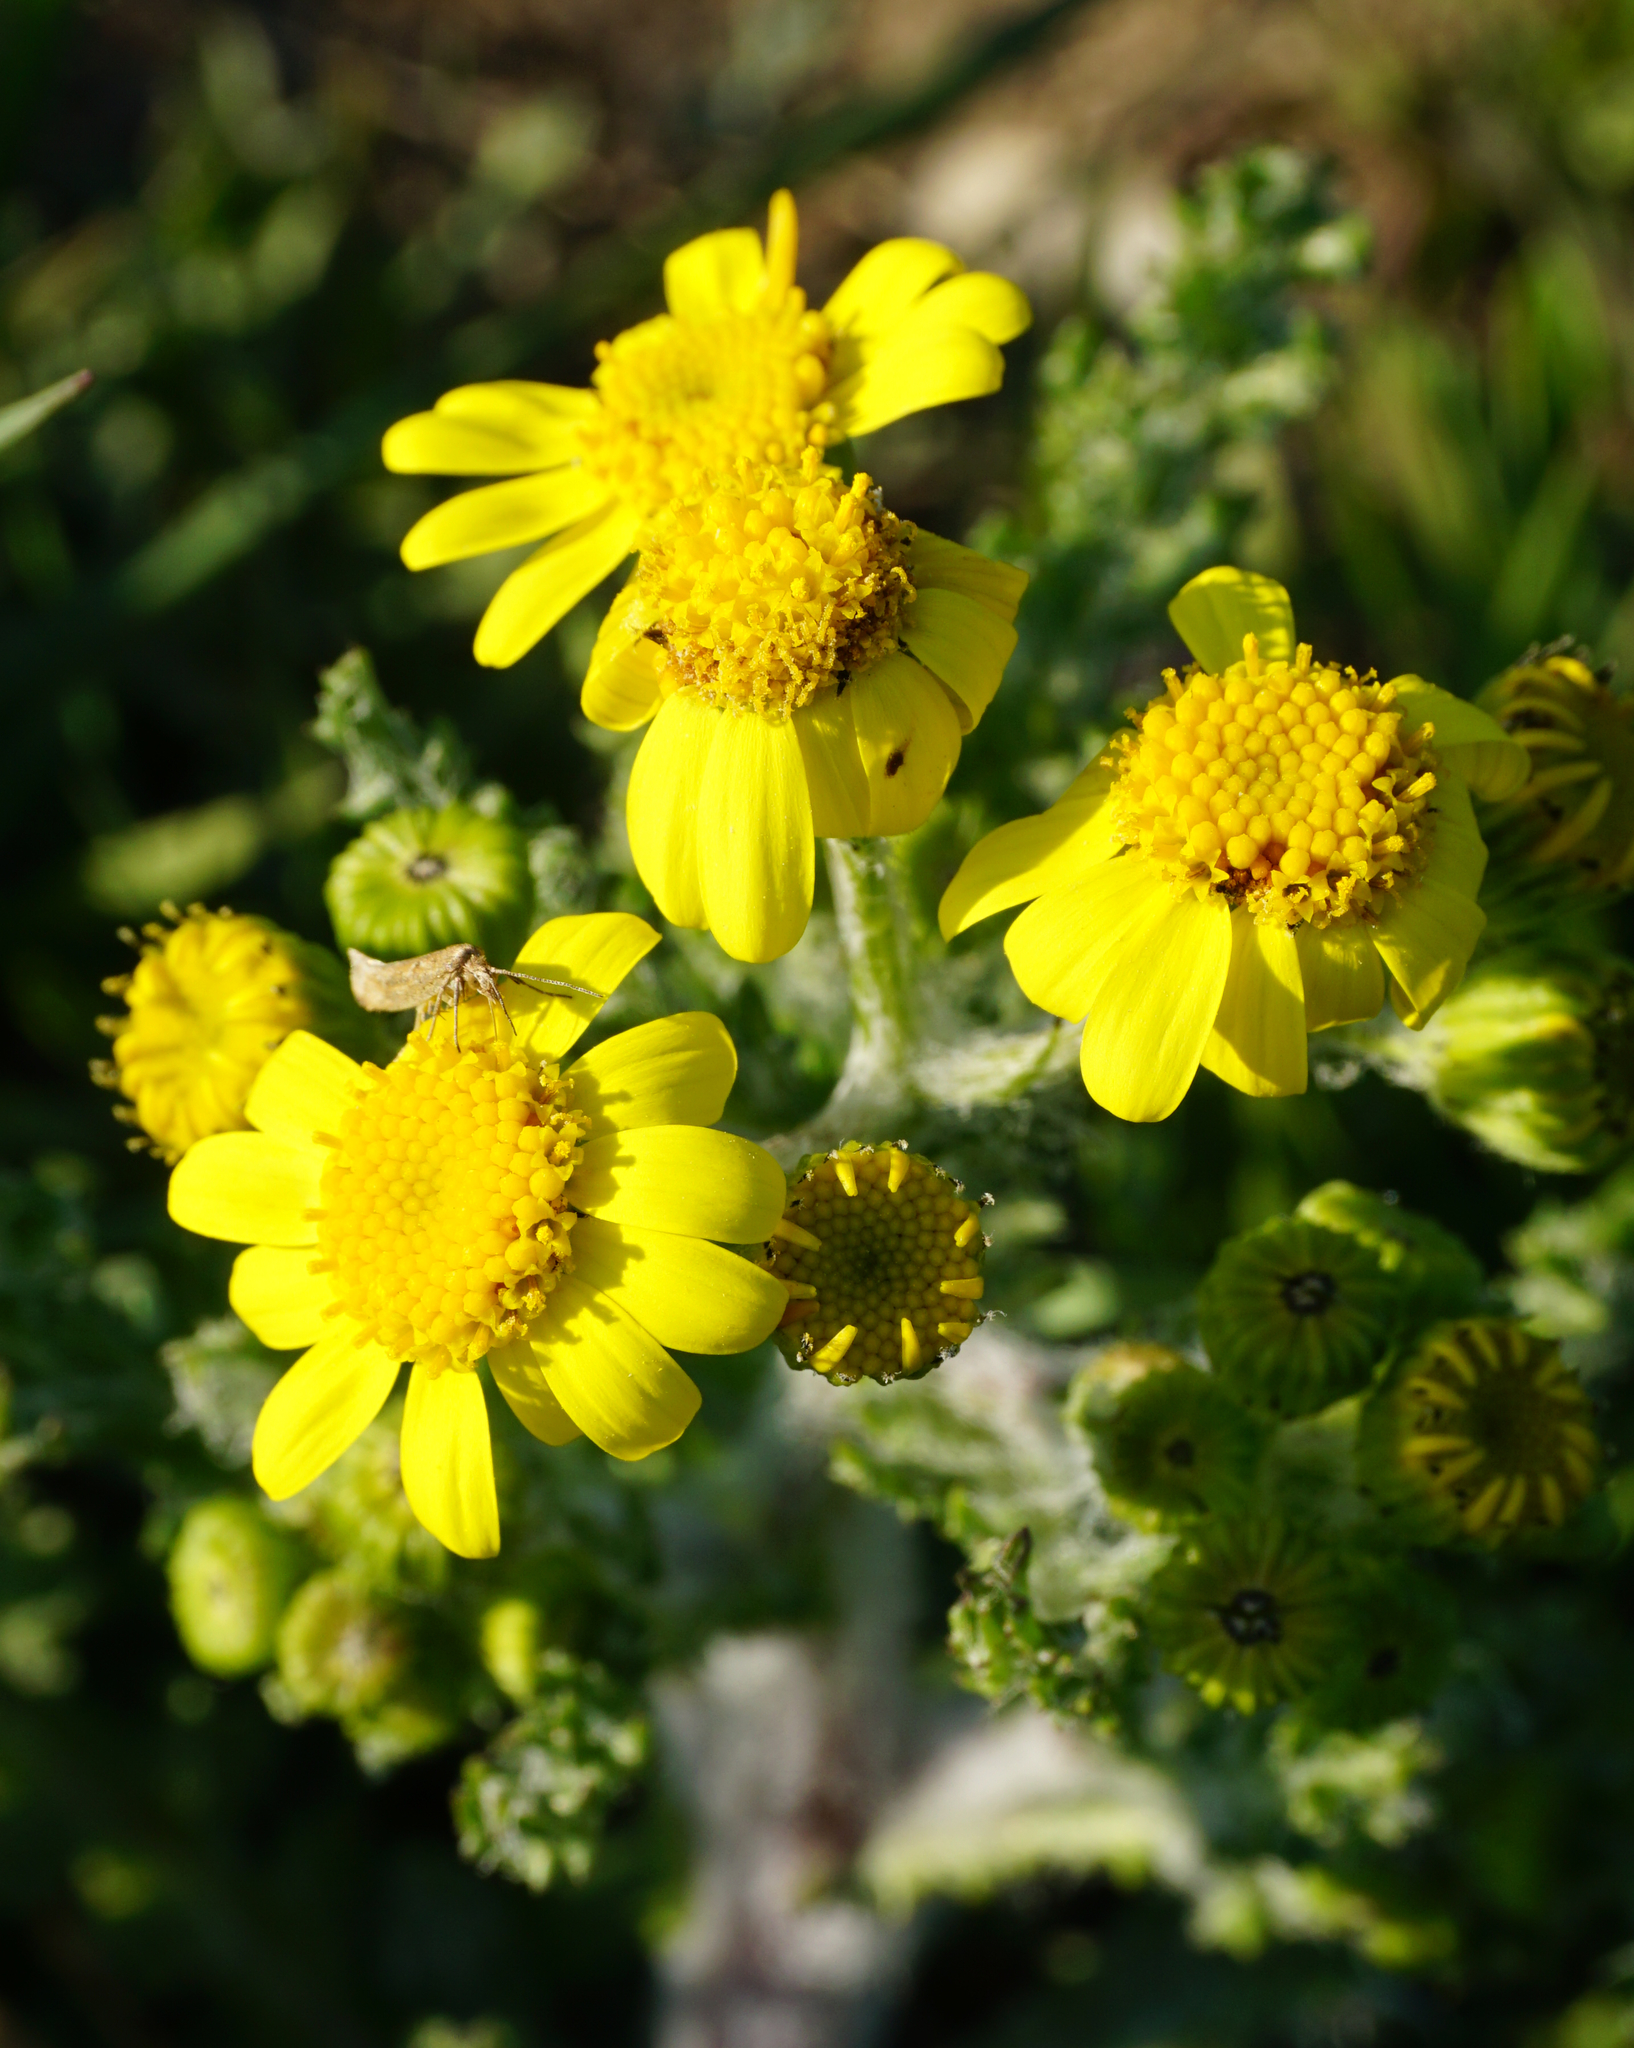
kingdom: Plantae
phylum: Tracheophyta
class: Magnoliopsida
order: Asterales
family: Asteraceae
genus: Senecio
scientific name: Senecio vernalis
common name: Eastern groundsel
